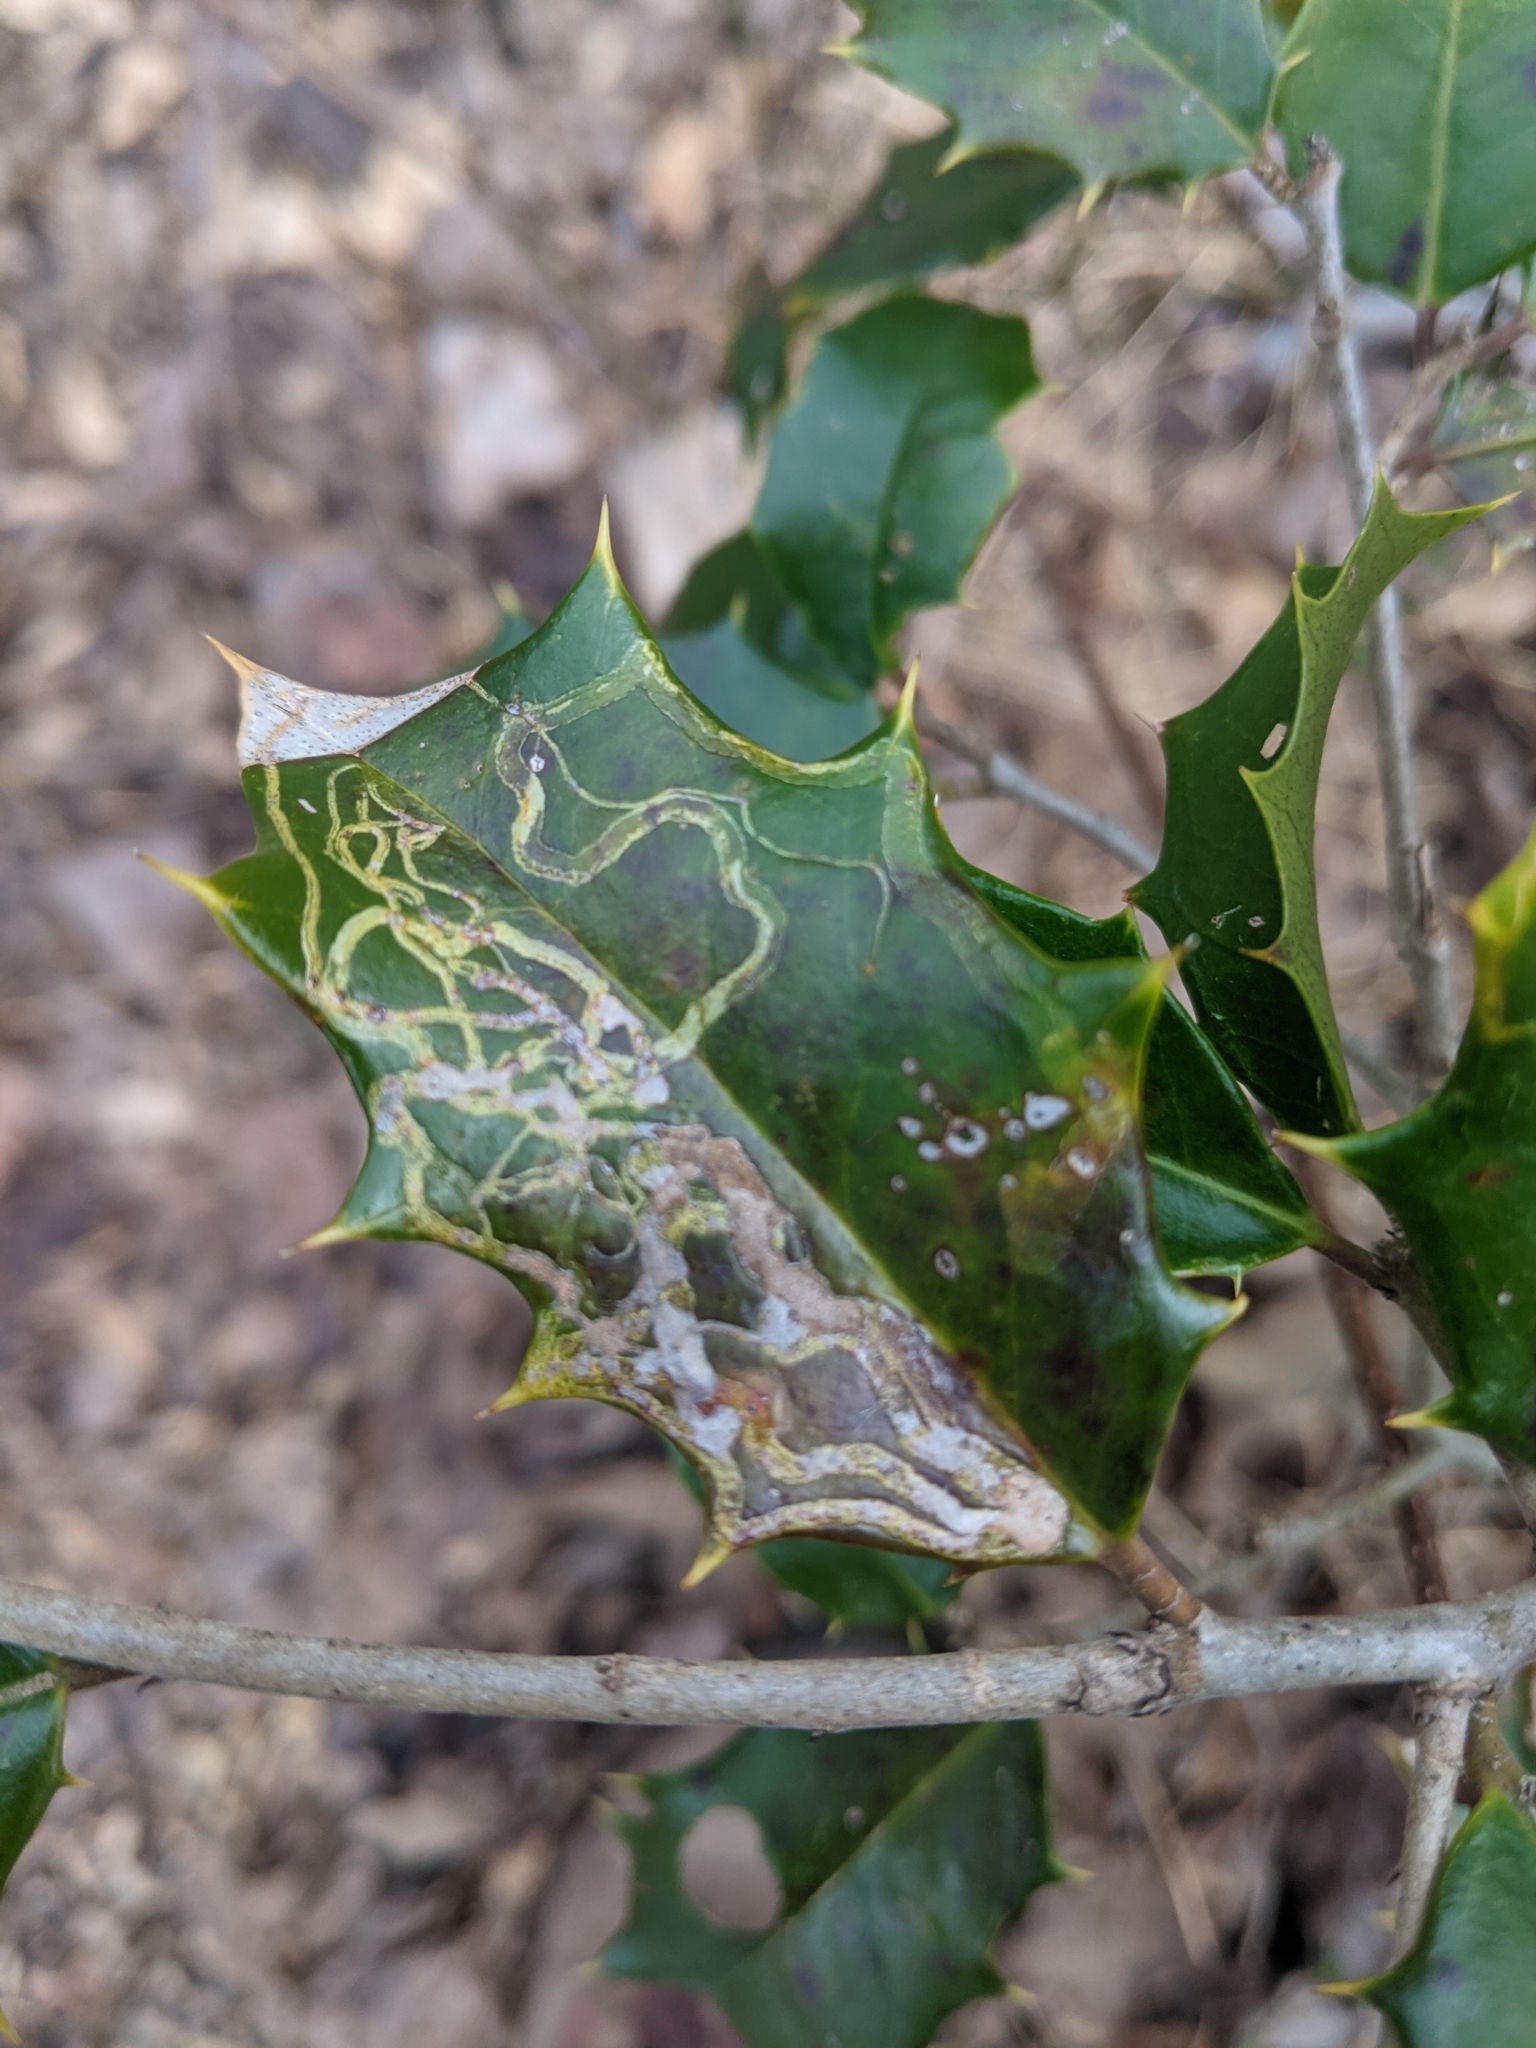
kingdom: Animalia
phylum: Arthropoda
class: Insecta
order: Diptera
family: Agromyzidae
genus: Phytomyza
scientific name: Phytomyza opacae
